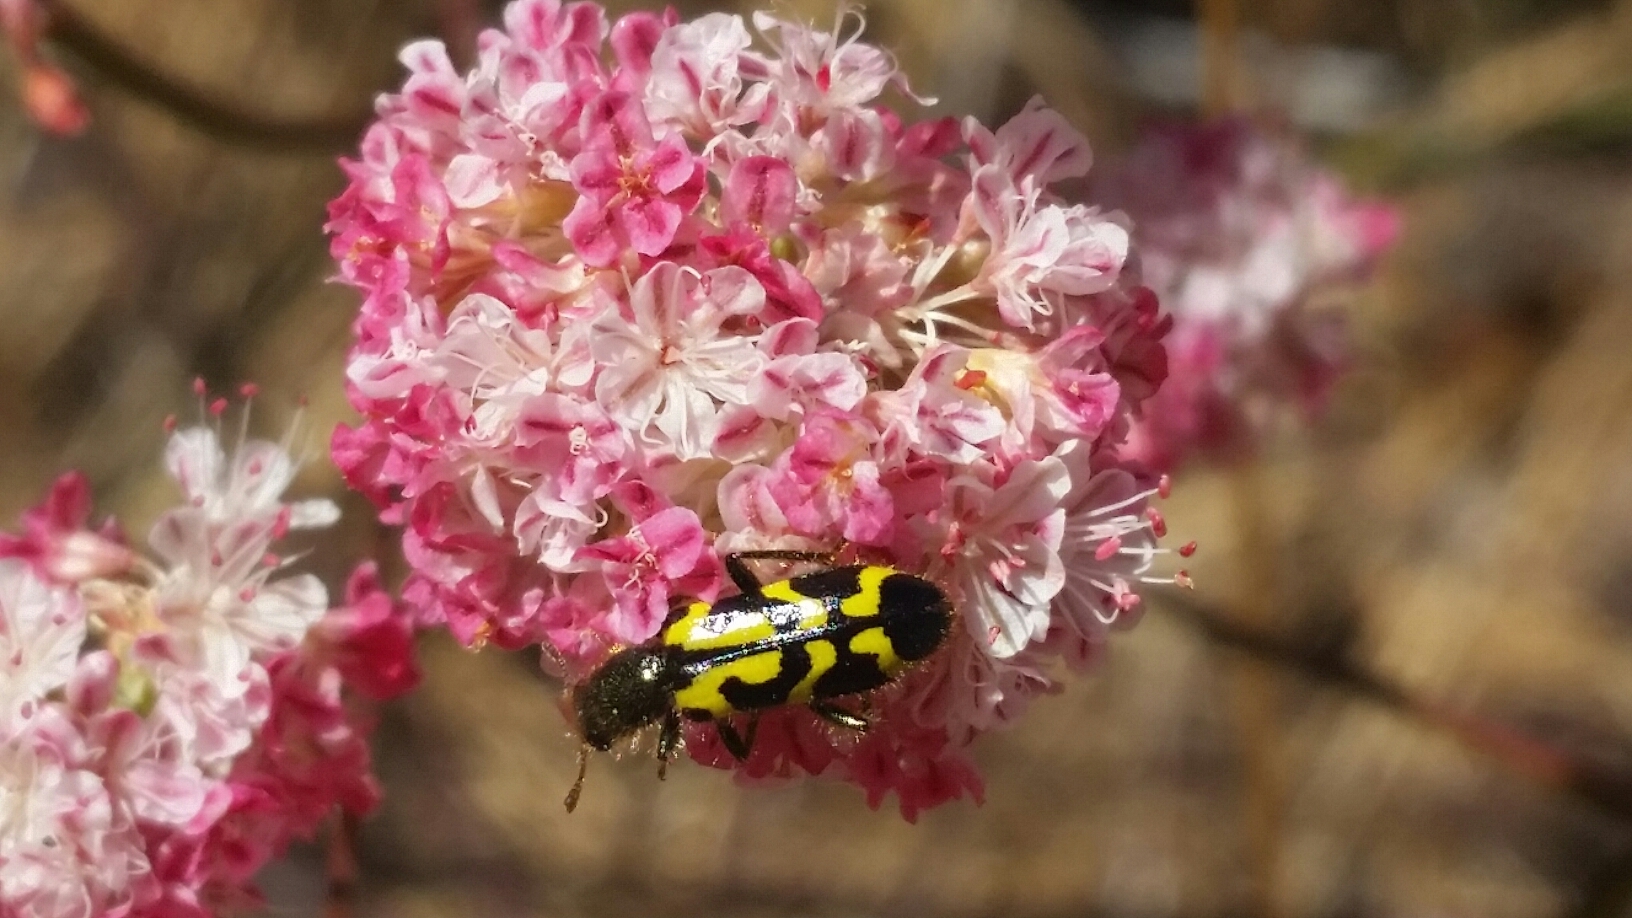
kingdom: Animalia
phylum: Arthropoda
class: Insecta
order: Coleoptera
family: Cleridae
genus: Trichodes
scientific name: Trichodes ornatus
